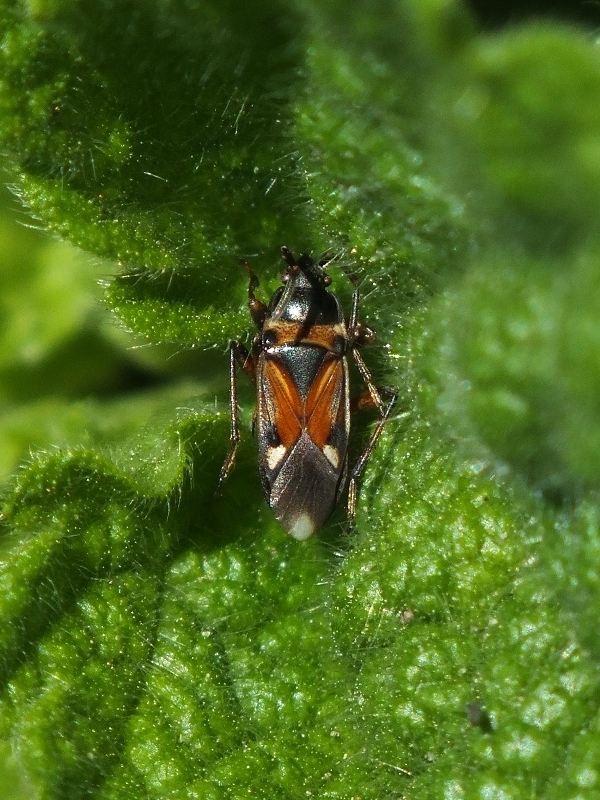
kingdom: Animalia
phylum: Arthropoda
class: Insecta
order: Hemiptera
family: Rhyparochromidae
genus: Raglius
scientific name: Raglius alboacuminatus
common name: Dirt-colored seed bug
